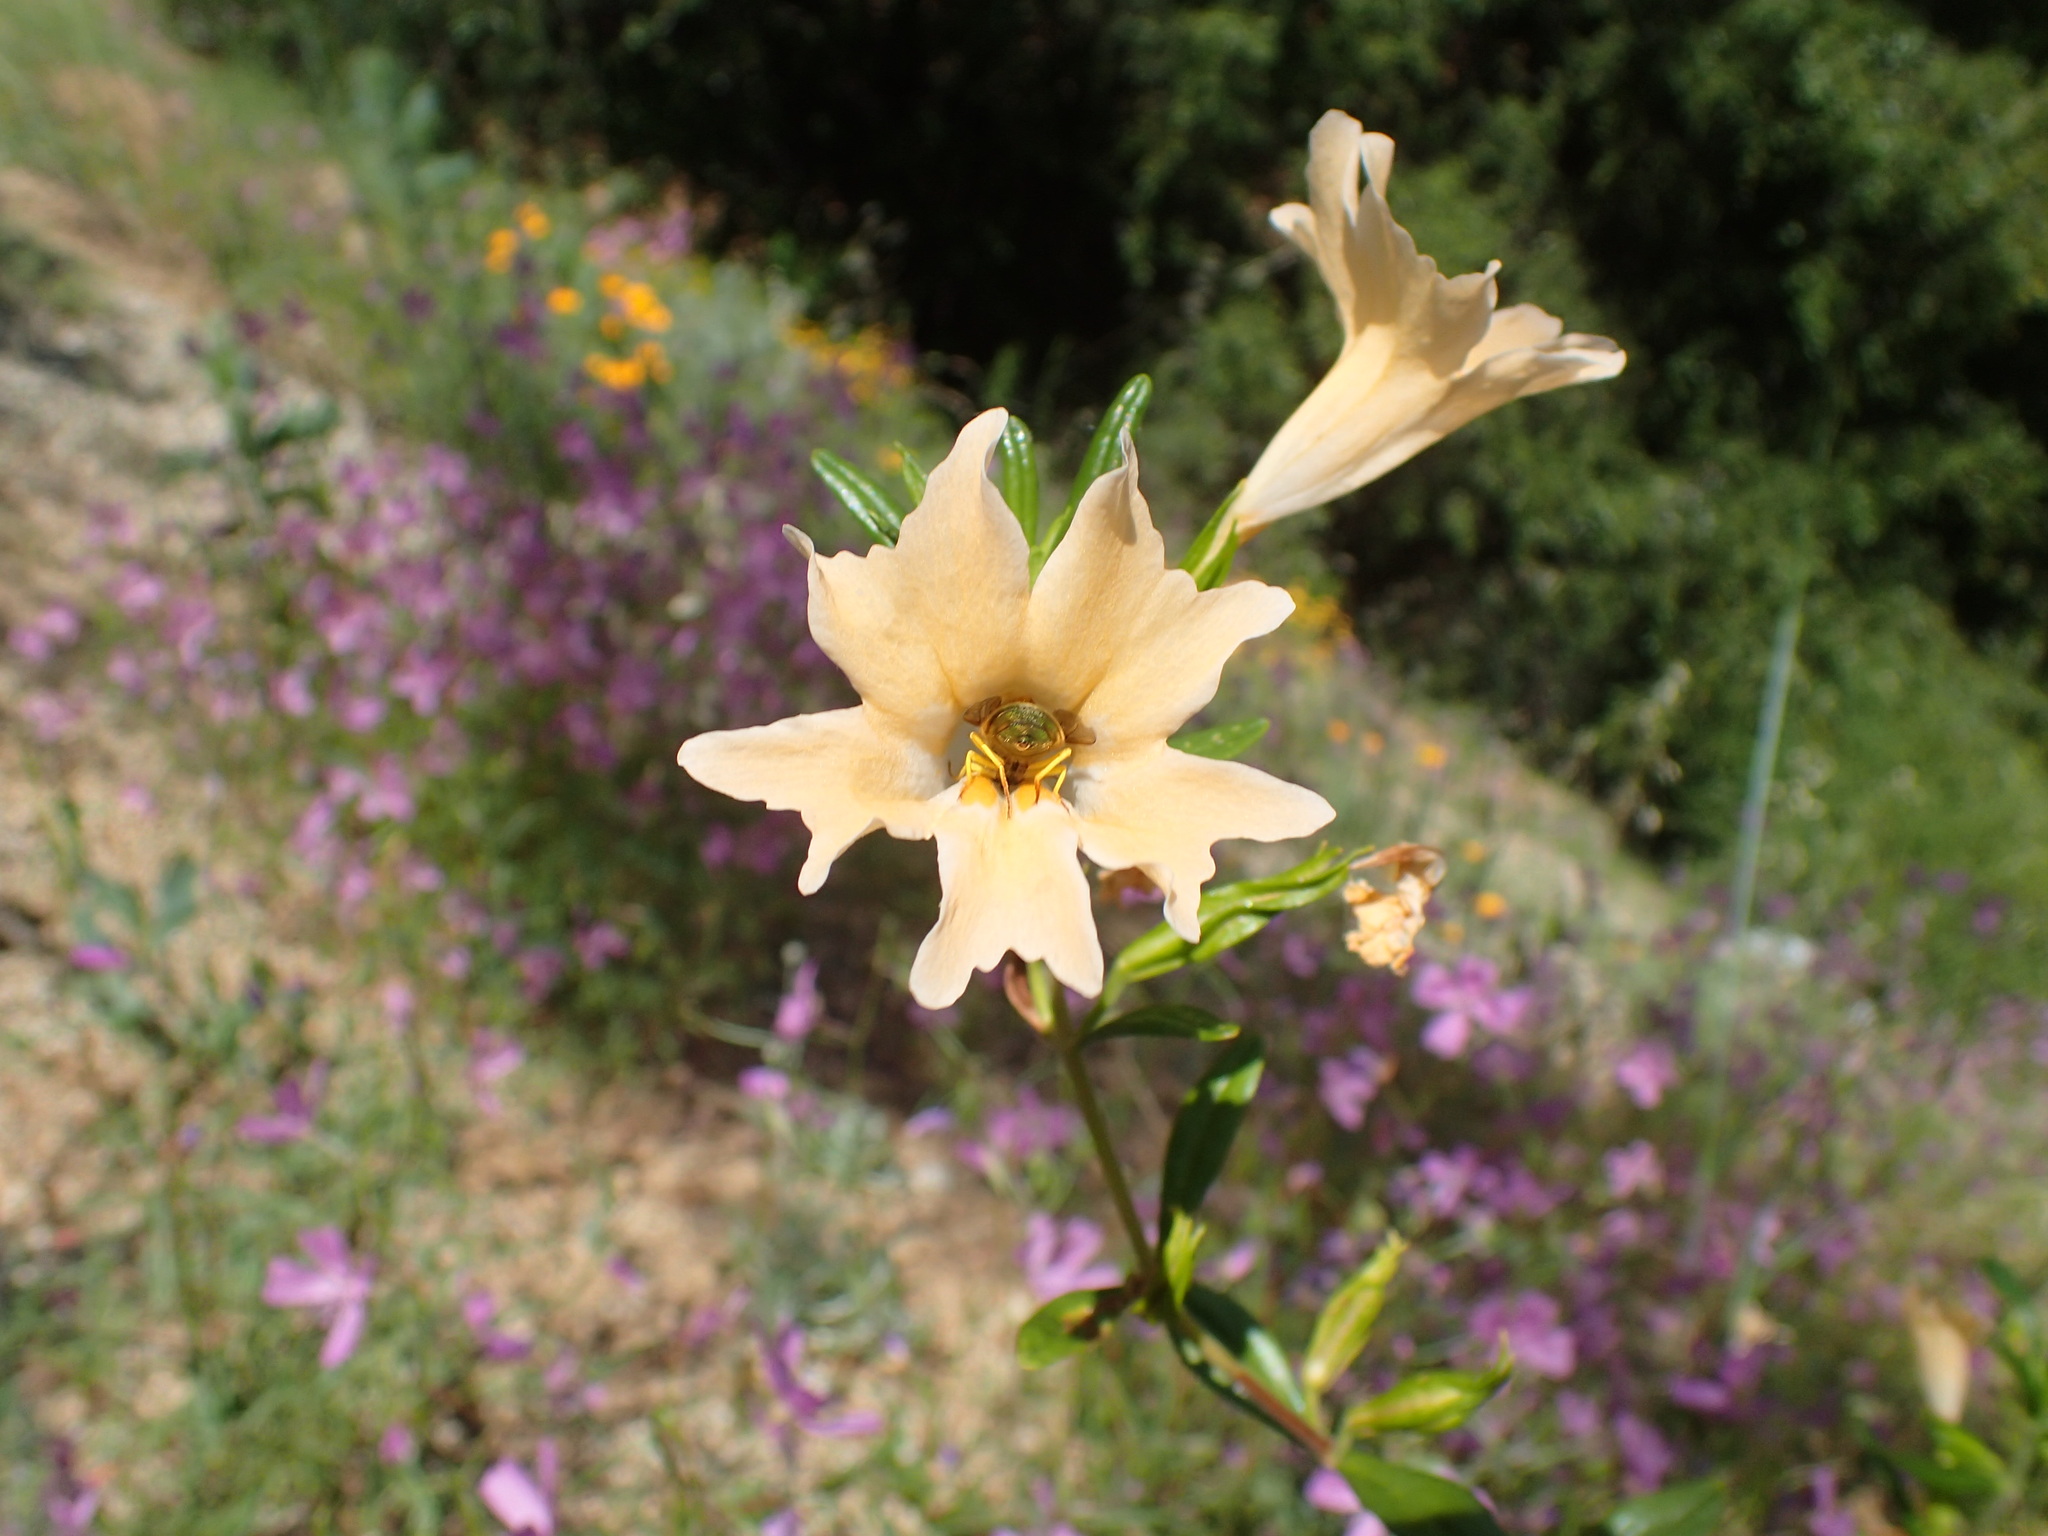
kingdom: Plantae
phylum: Tracheophyta
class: Magnoliopsida
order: Lamiales
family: Phrymaceae
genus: Diplacus
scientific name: Diplacus grandiflorus
